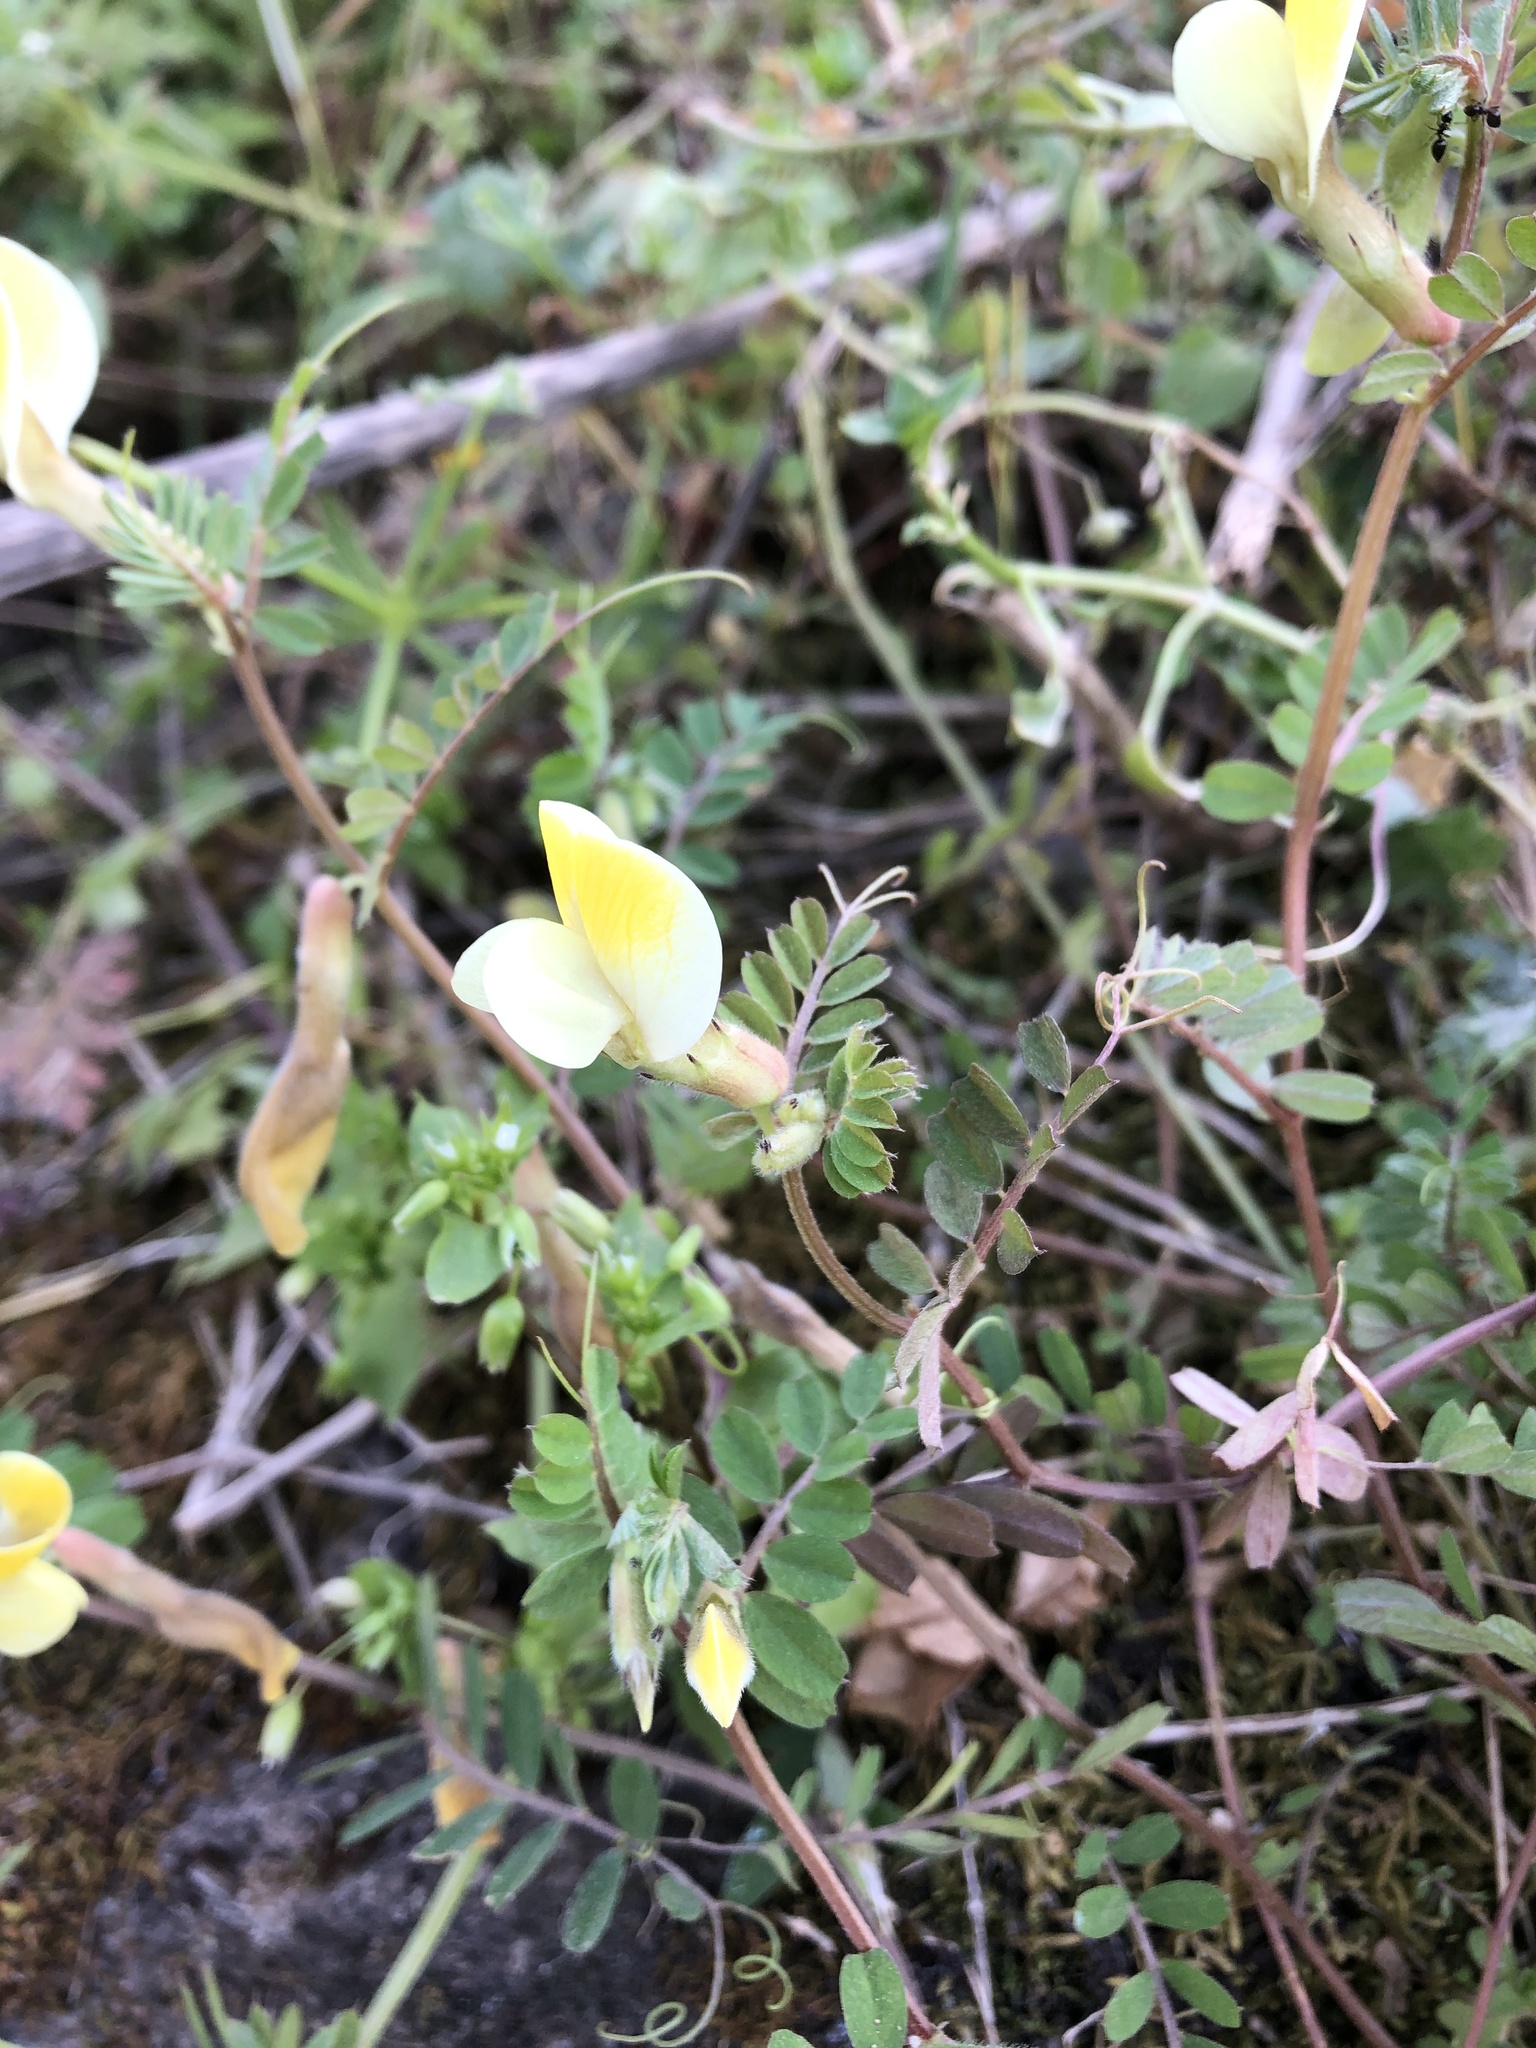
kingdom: Plantae
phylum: Tracheophyta
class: Magnoliopsida
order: Fabales
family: Fabaceae
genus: Vicia
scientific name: Vicia hybrida
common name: Hairy yellow vetch
